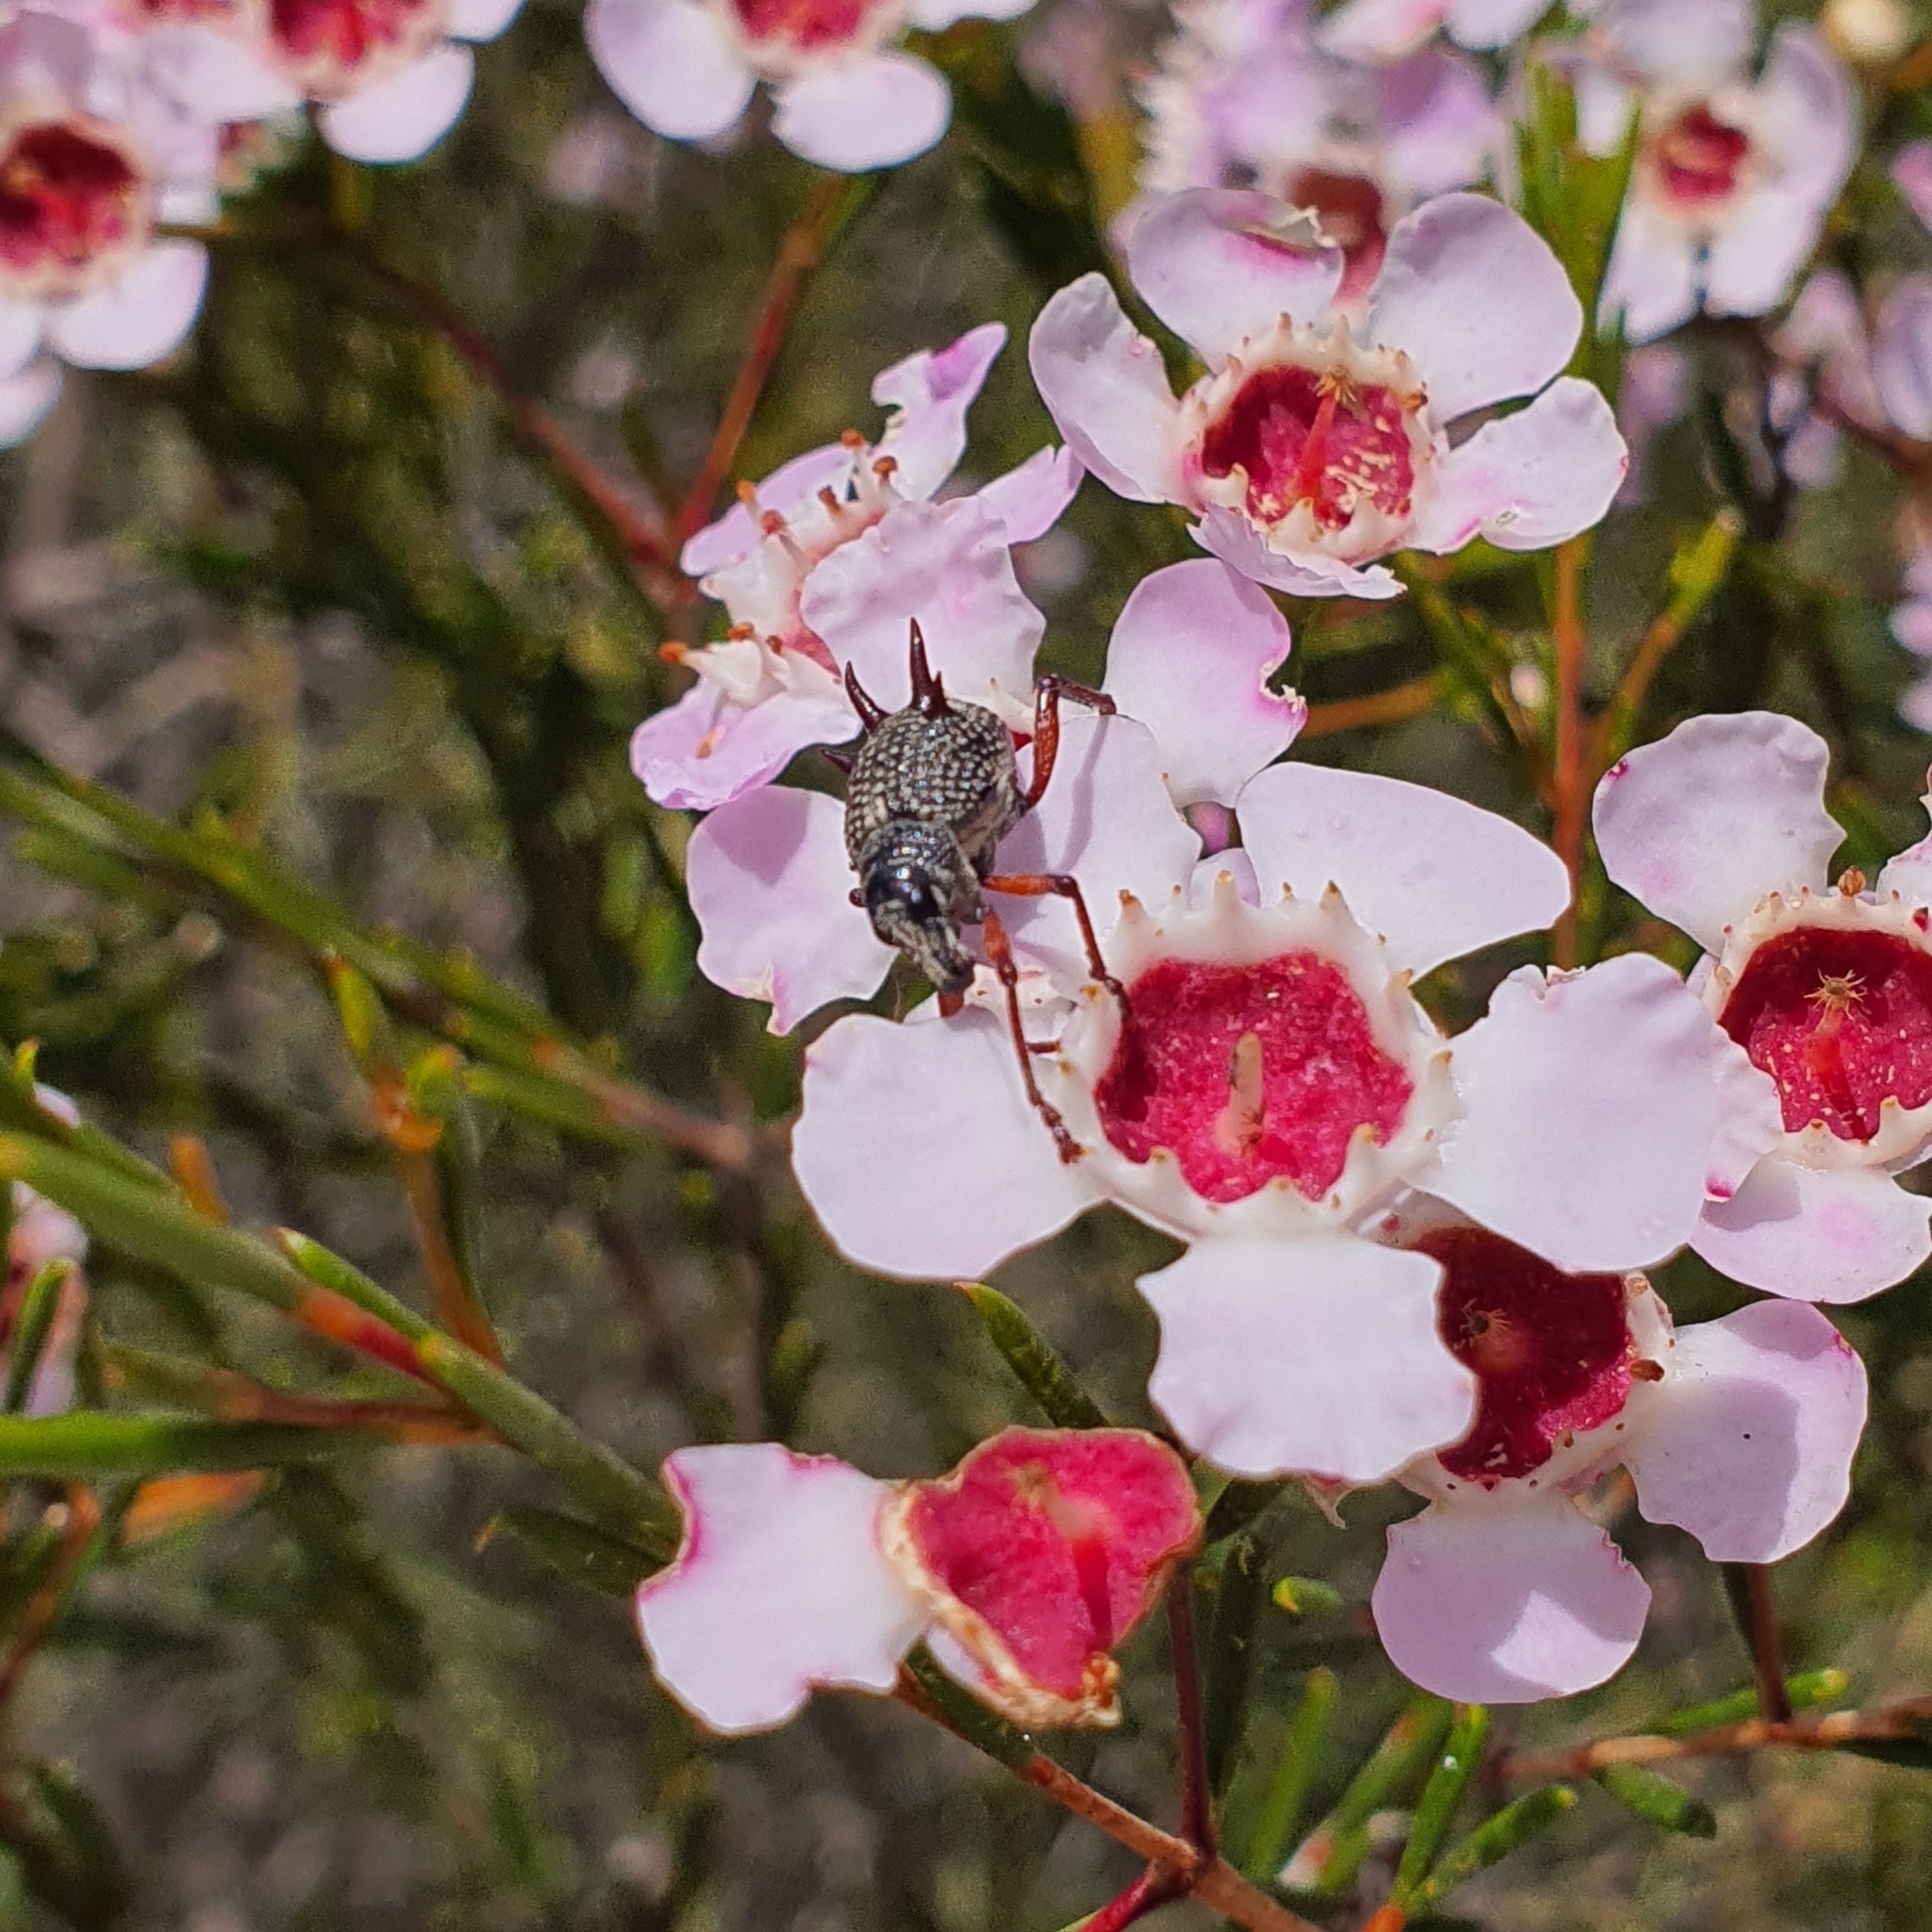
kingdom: Animalia
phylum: Arthropoda
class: Insecta
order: Coleoptera
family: Curculionidae
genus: Catasarcus
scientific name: Catasarcus spinipennis
